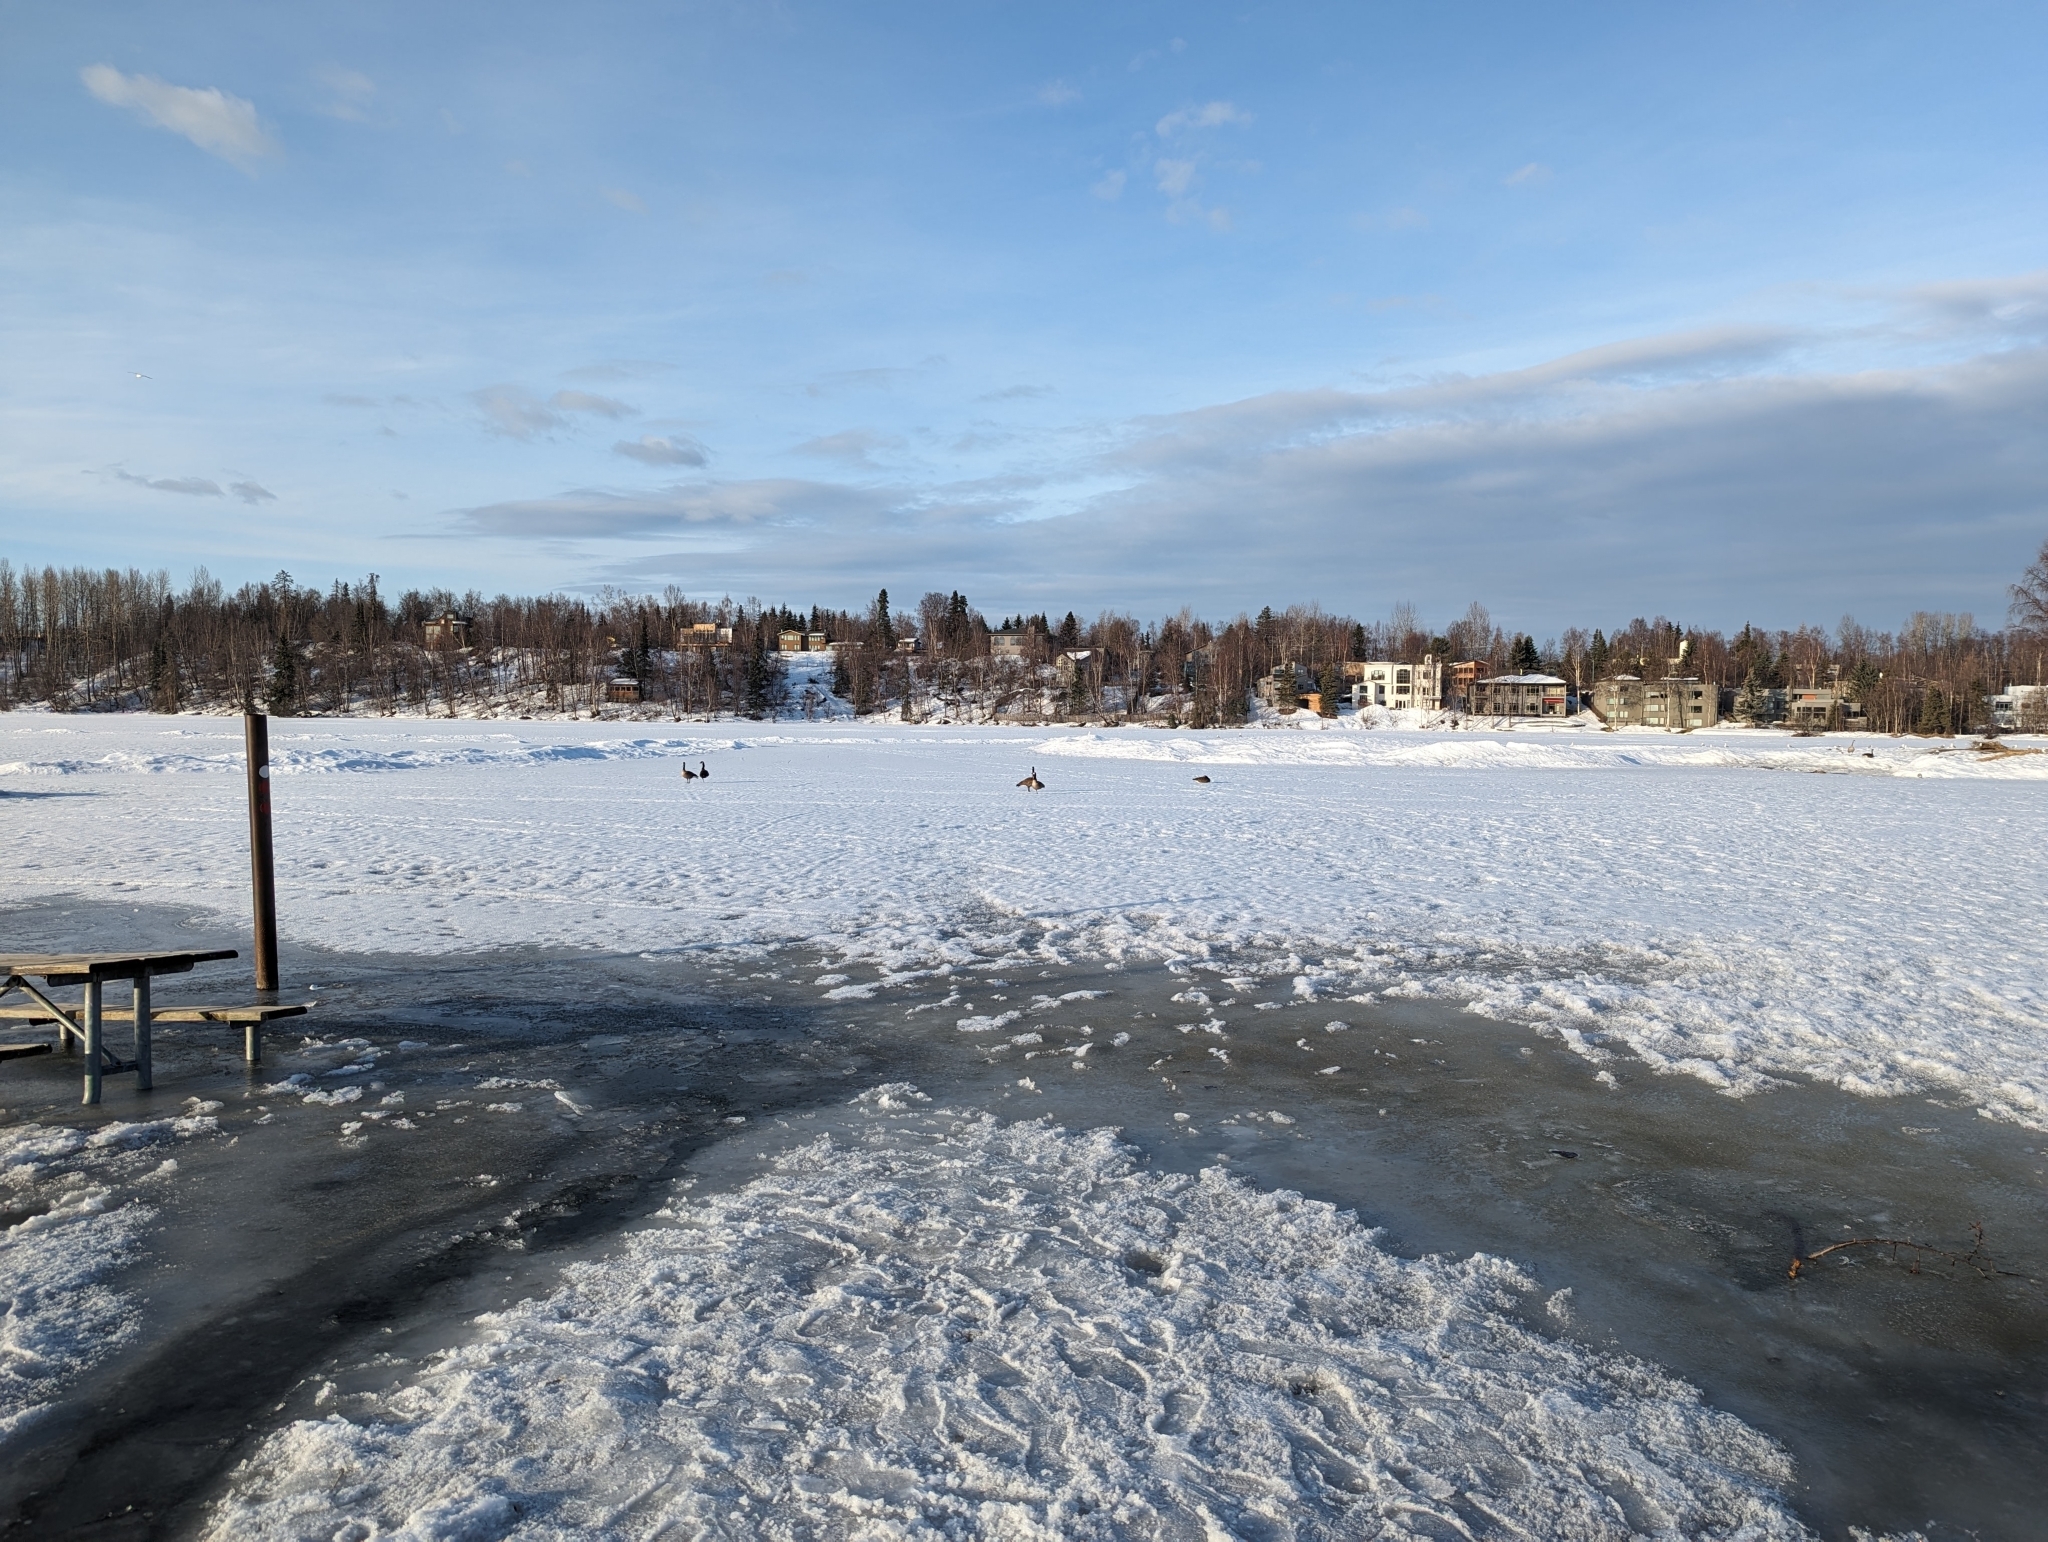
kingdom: Animalia
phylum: Chordata
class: Aves
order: Anseriformes
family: Anatidae
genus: Branta
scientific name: Branta canadensis
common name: Canada goose
